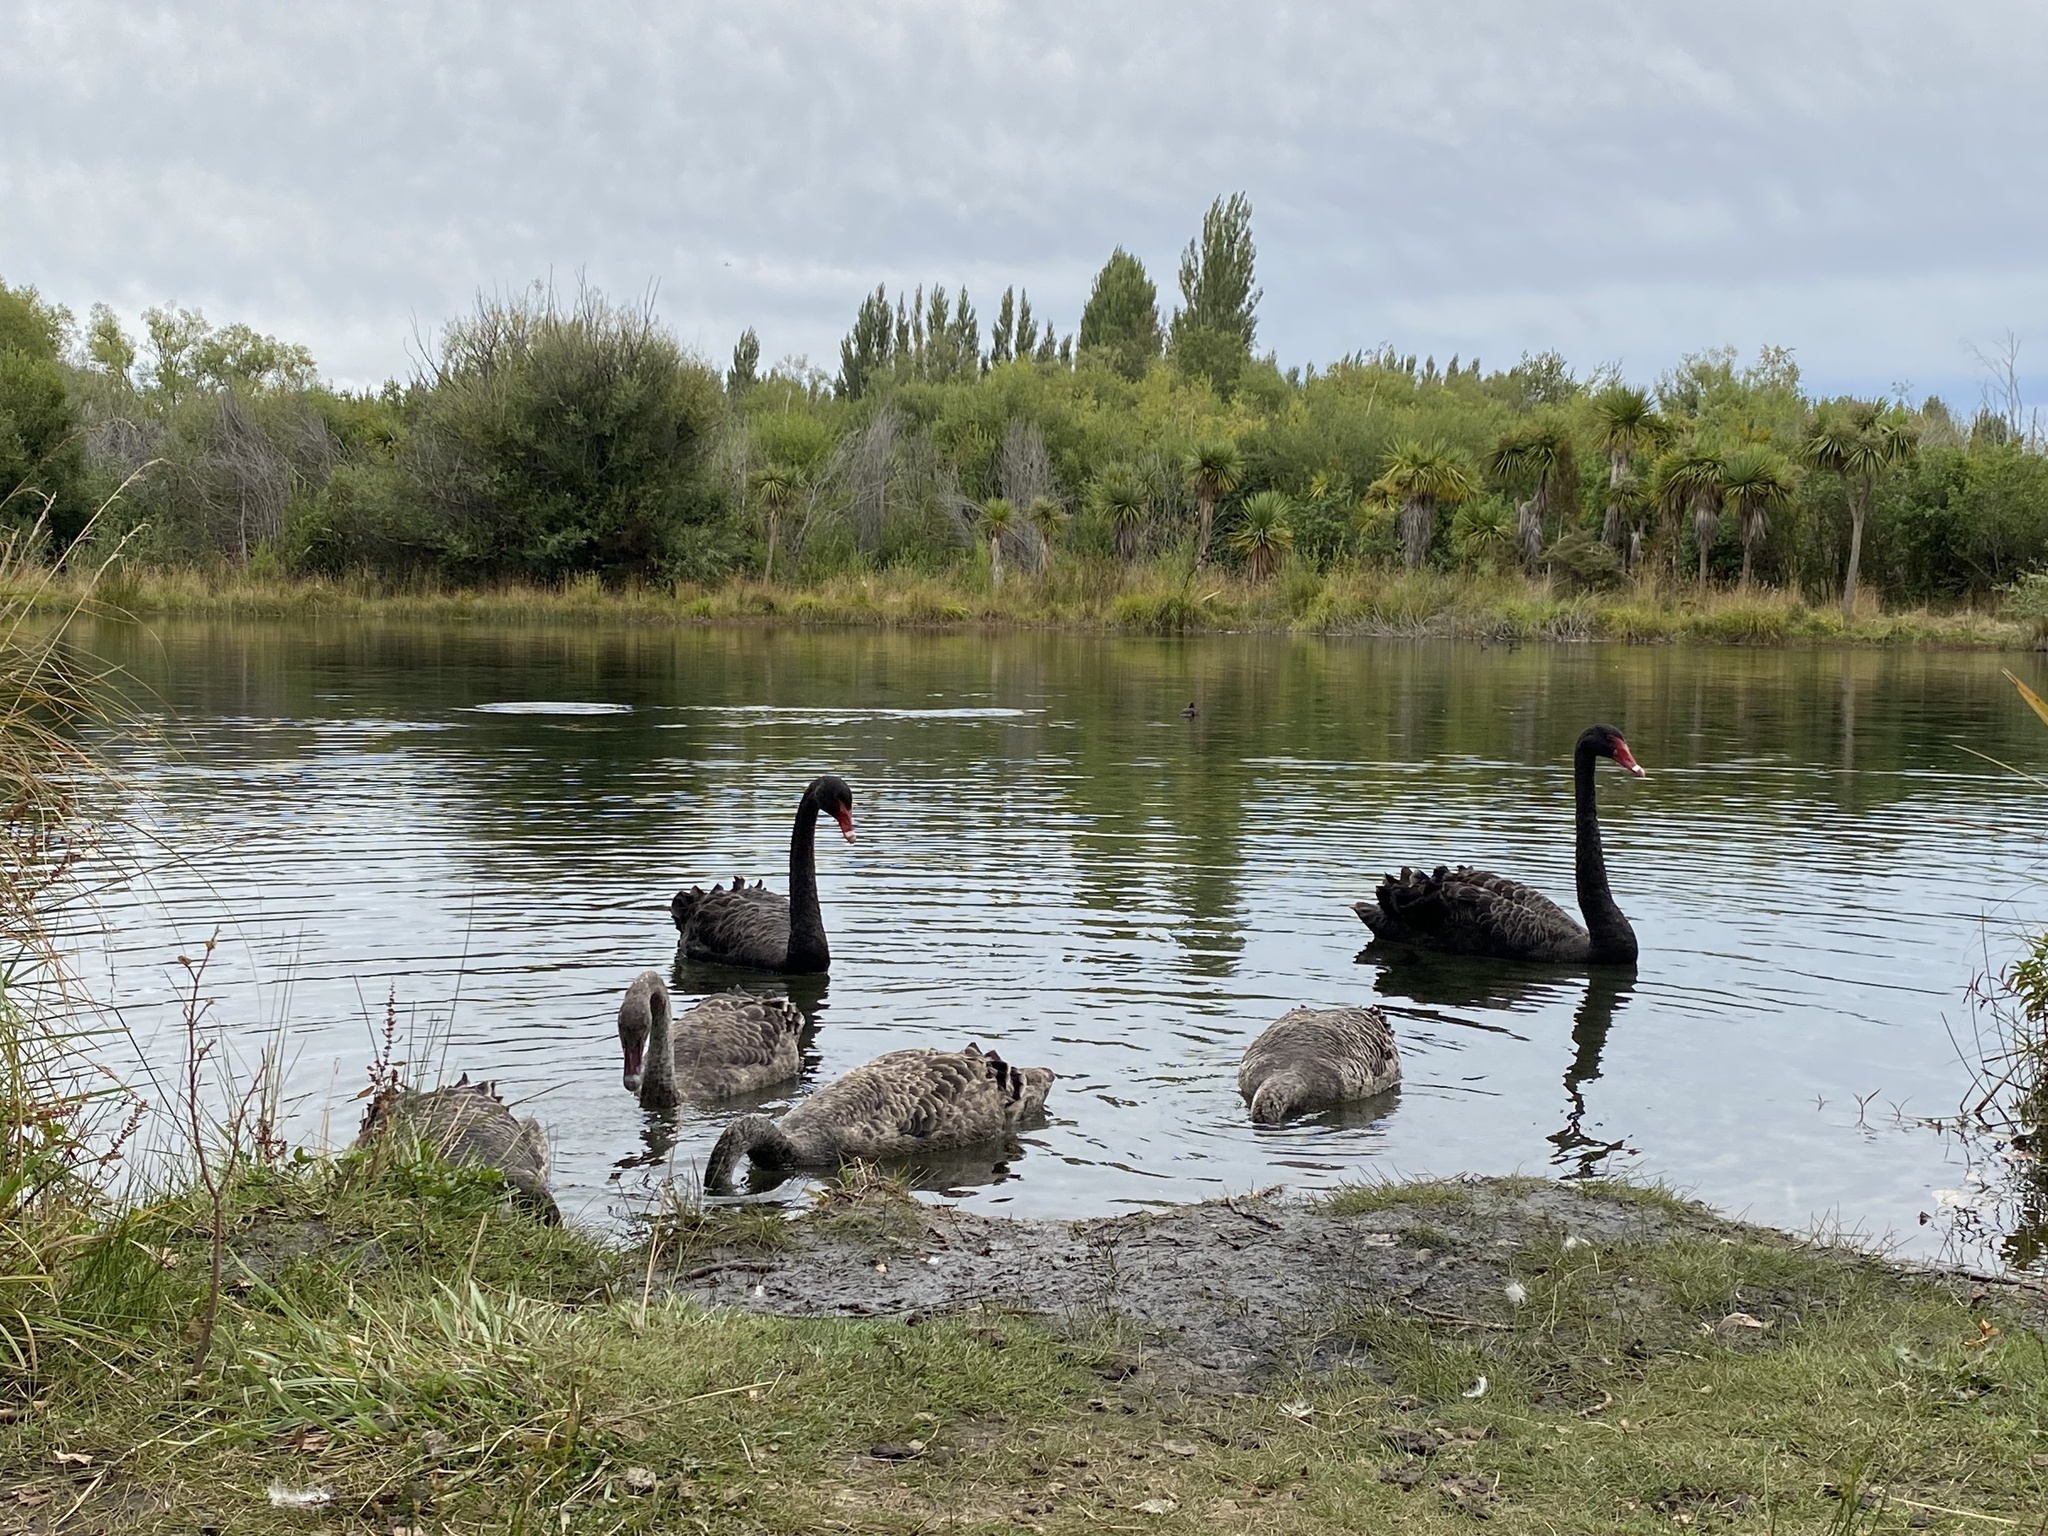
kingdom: Animalia
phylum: Chordata
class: Aves
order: Anseriformes
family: Anatidae
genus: Cygnus
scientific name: Cygnus atratus
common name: Black swan
